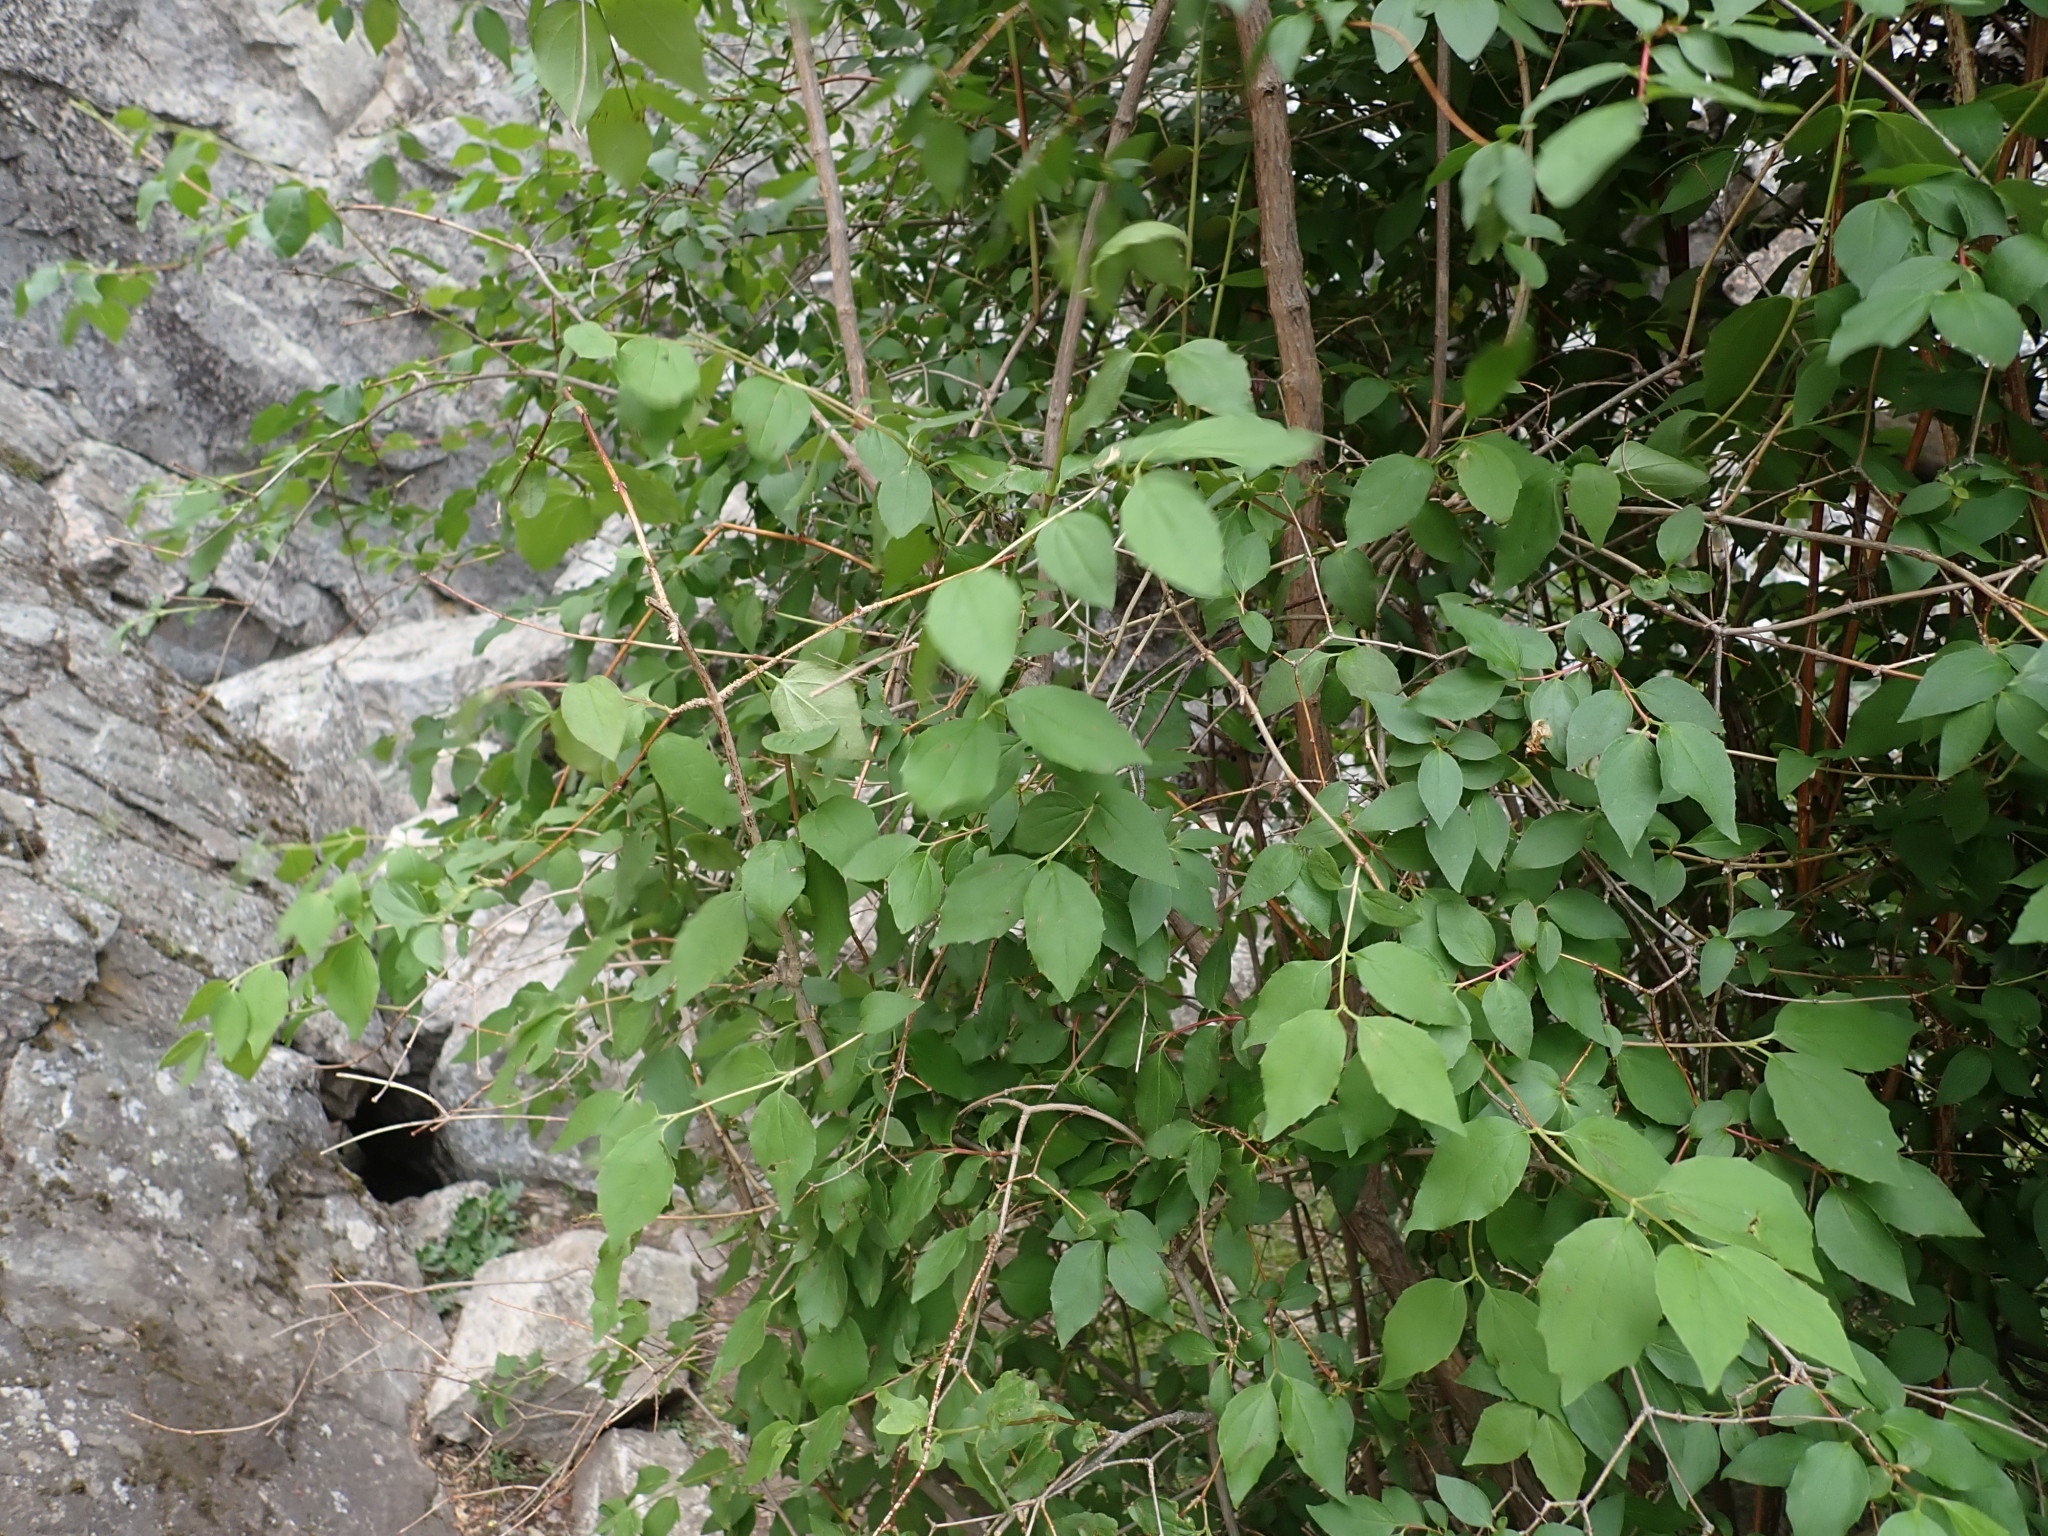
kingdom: Plantae
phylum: Tracheophyta
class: Magnoliopsida
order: Cornales
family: Hydrangeaceae
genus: Philadelphus
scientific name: Philadelphus lewisii
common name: Lewis's mock orange
